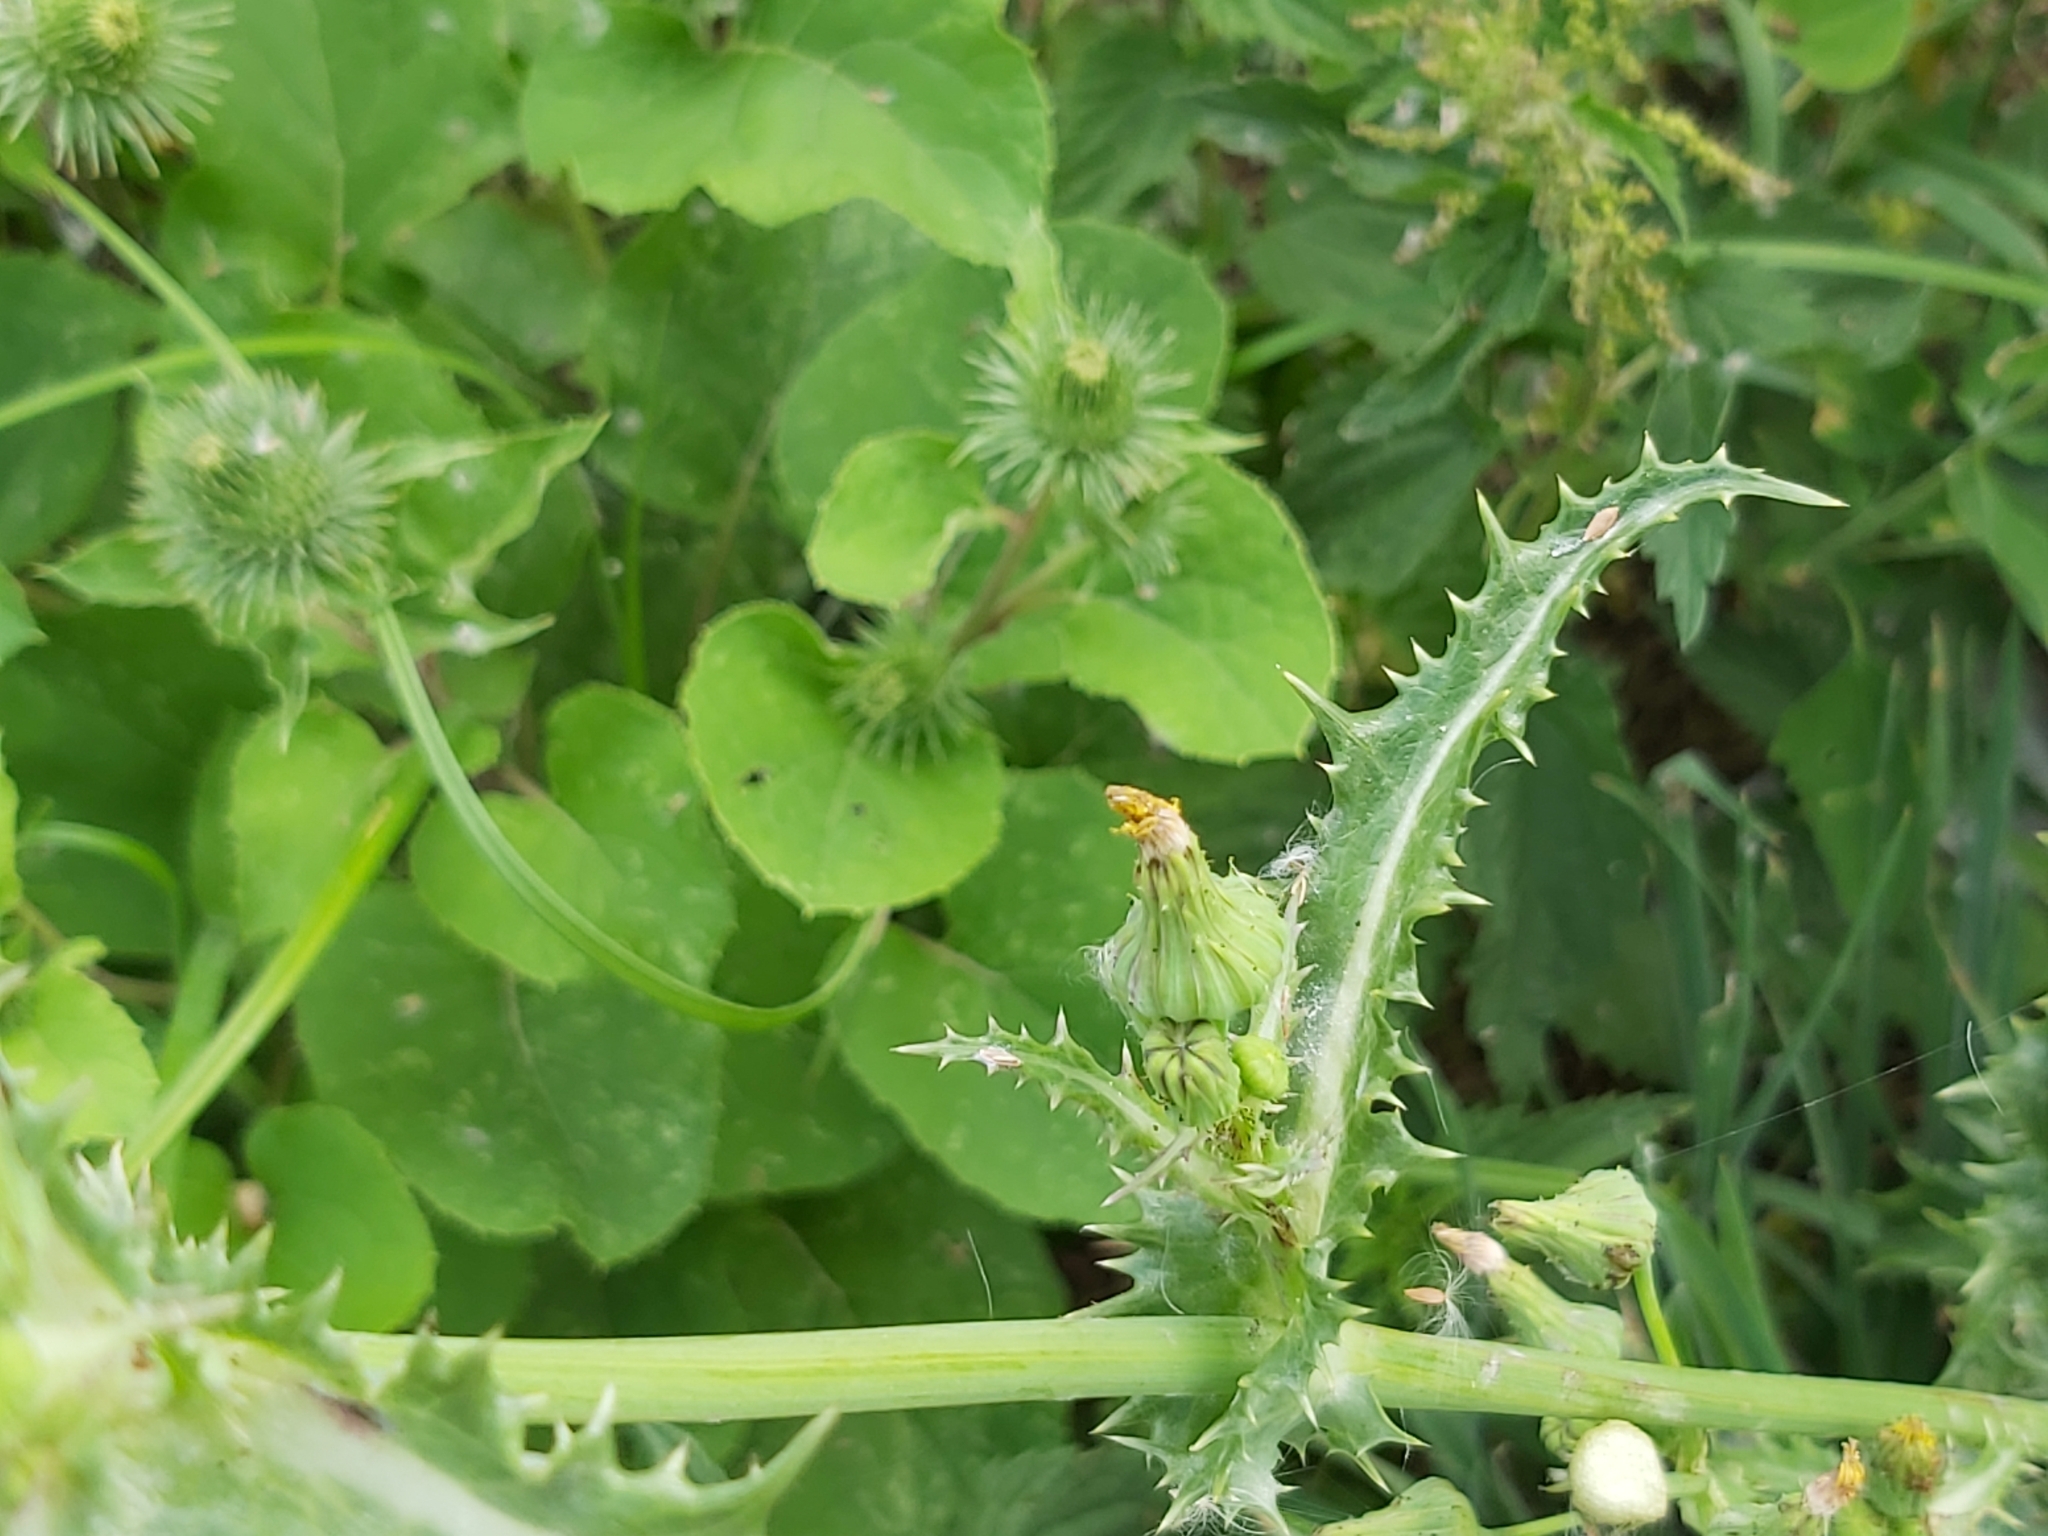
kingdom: Plantae
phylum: Tracheophyta
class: Magnoliopsida
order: Asterales
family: Asteraceae
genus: Sonchus
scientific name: Sonchus asper
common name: Prickly sow-thistle
